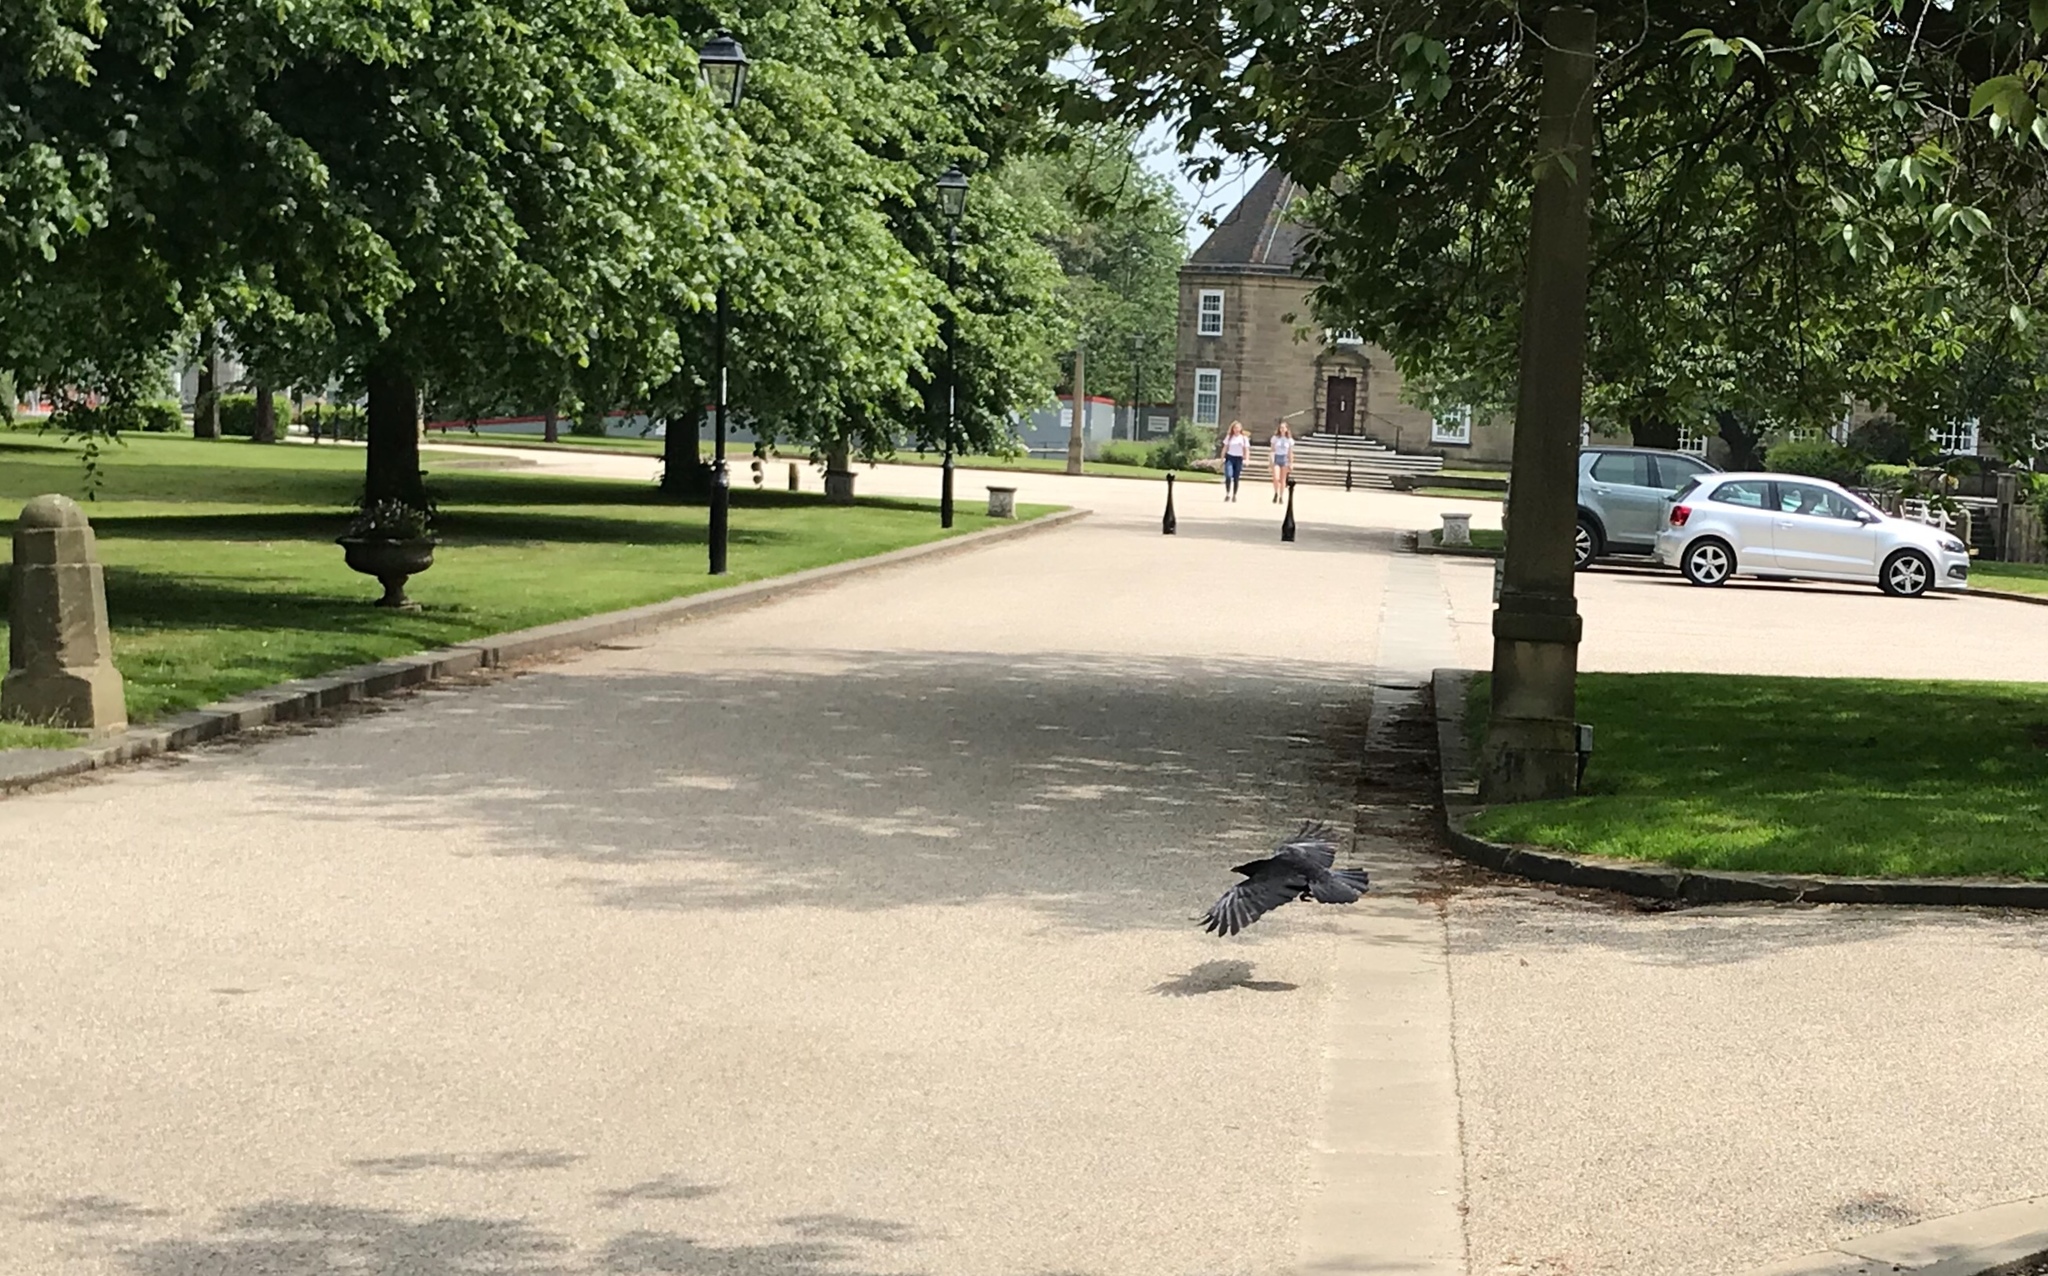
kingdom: Animalia
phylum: Chordata
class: Aves
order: Passeriformes
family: Corvidae
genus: Corvus
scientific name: Corvus corone
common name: Carrion crow
